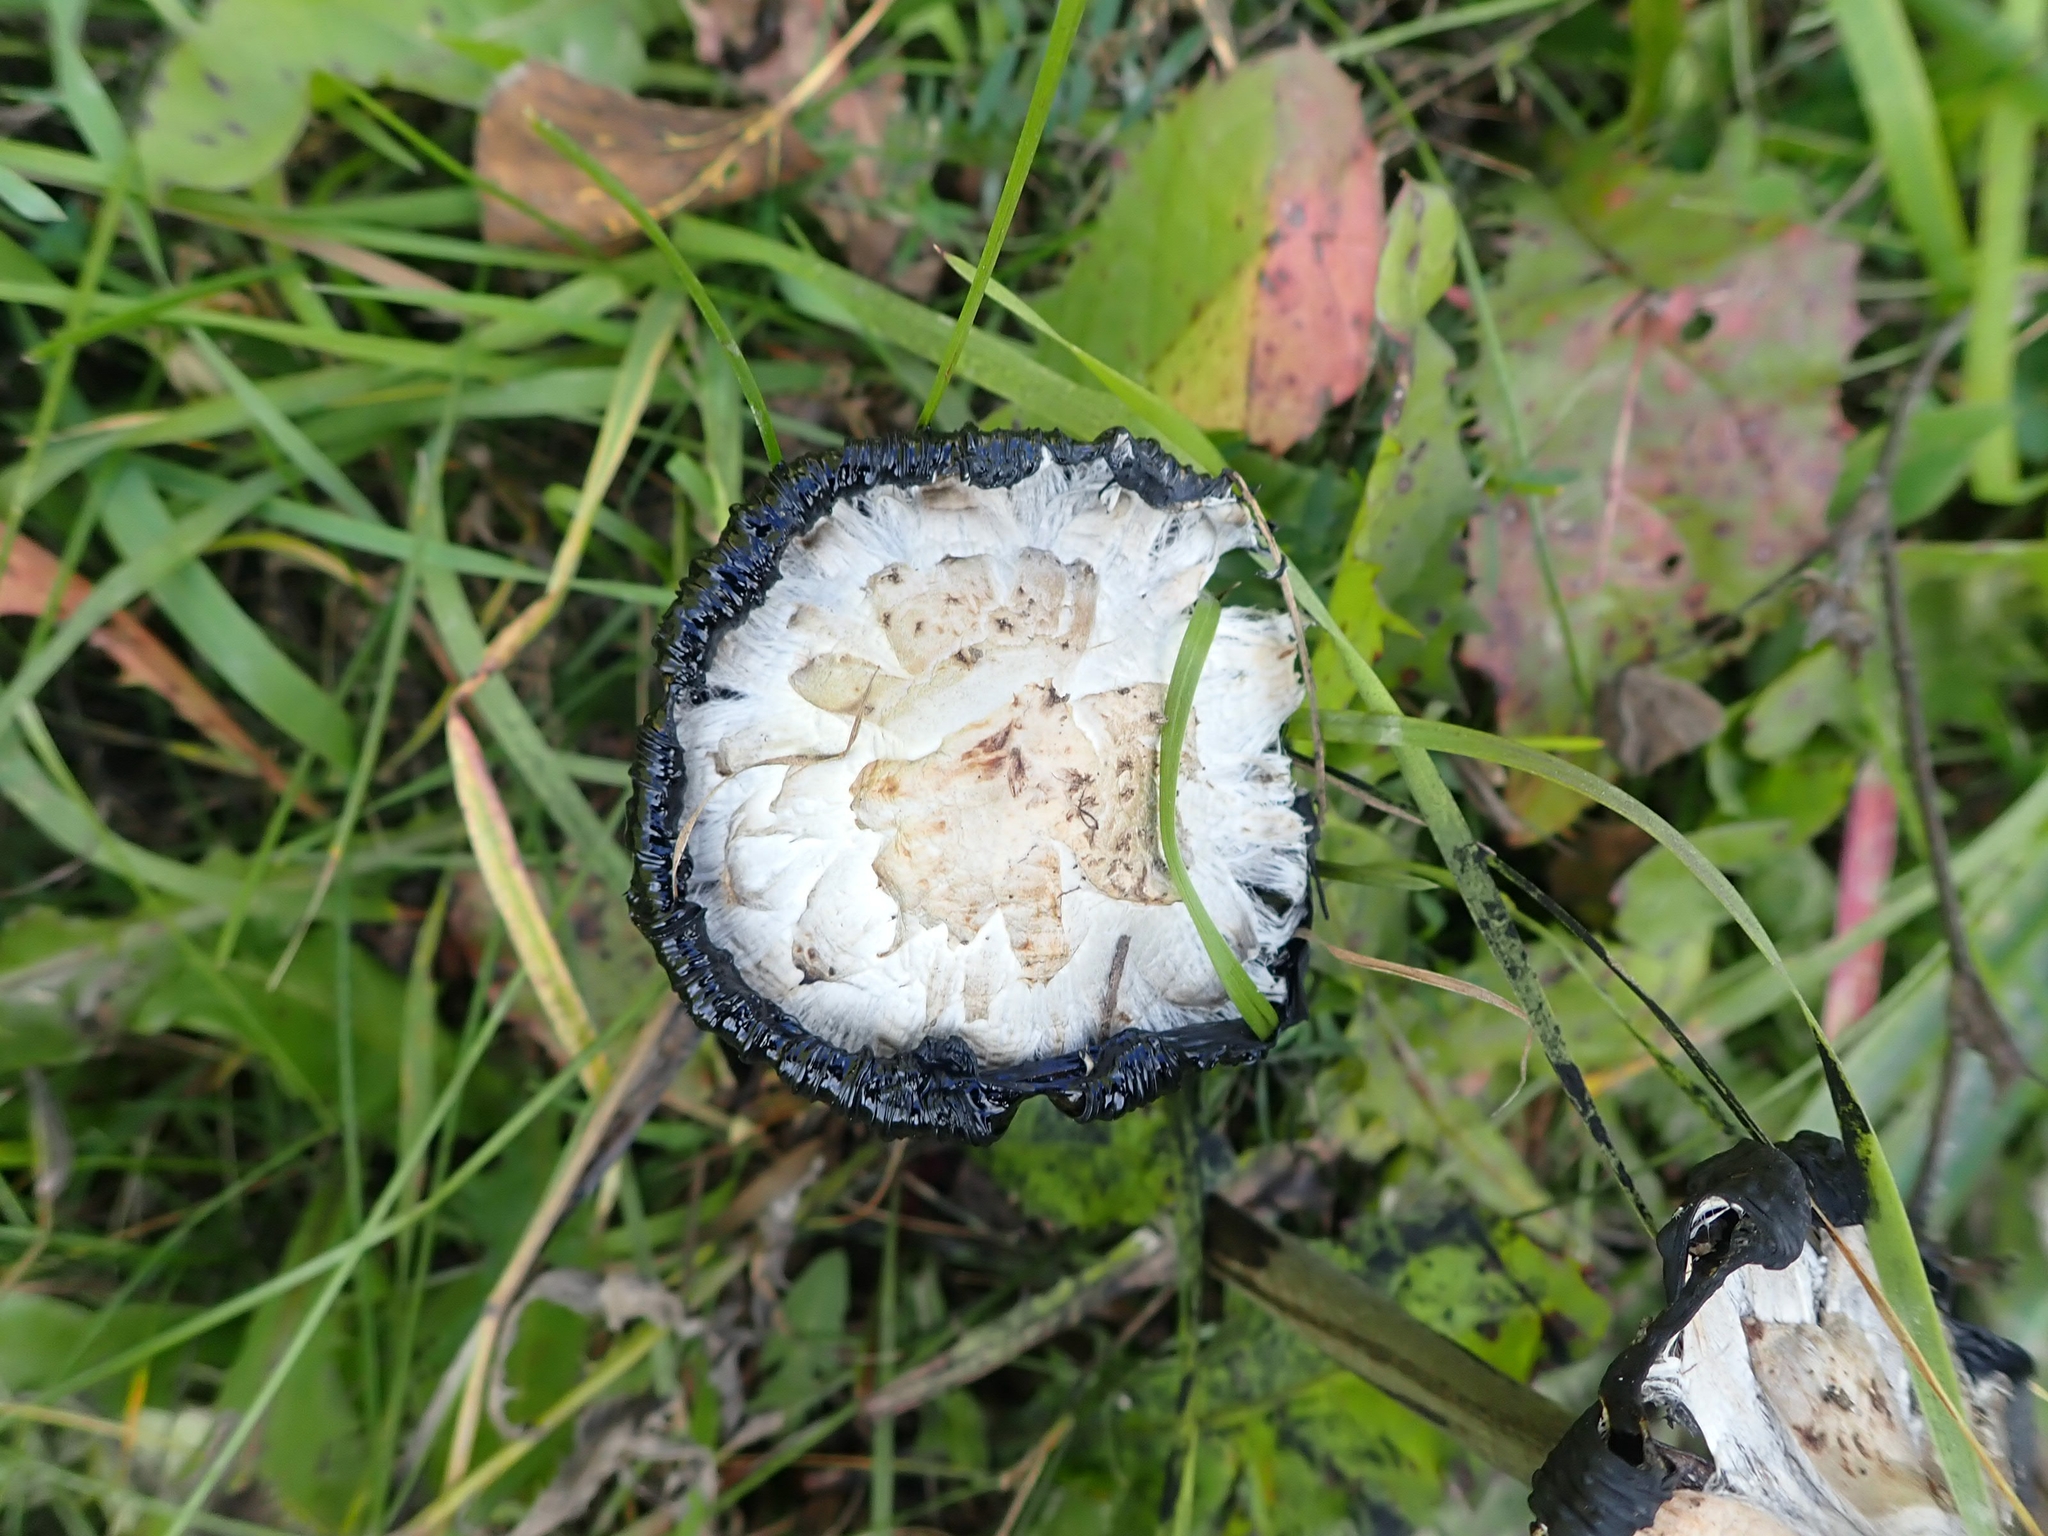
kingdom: Fungi
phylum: Basidiomycota
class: Agaricomycetes
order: Agaricales
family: Agaricaceae
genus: Coprinus
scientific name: Coprinus comatus
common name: Lawyer's wig
